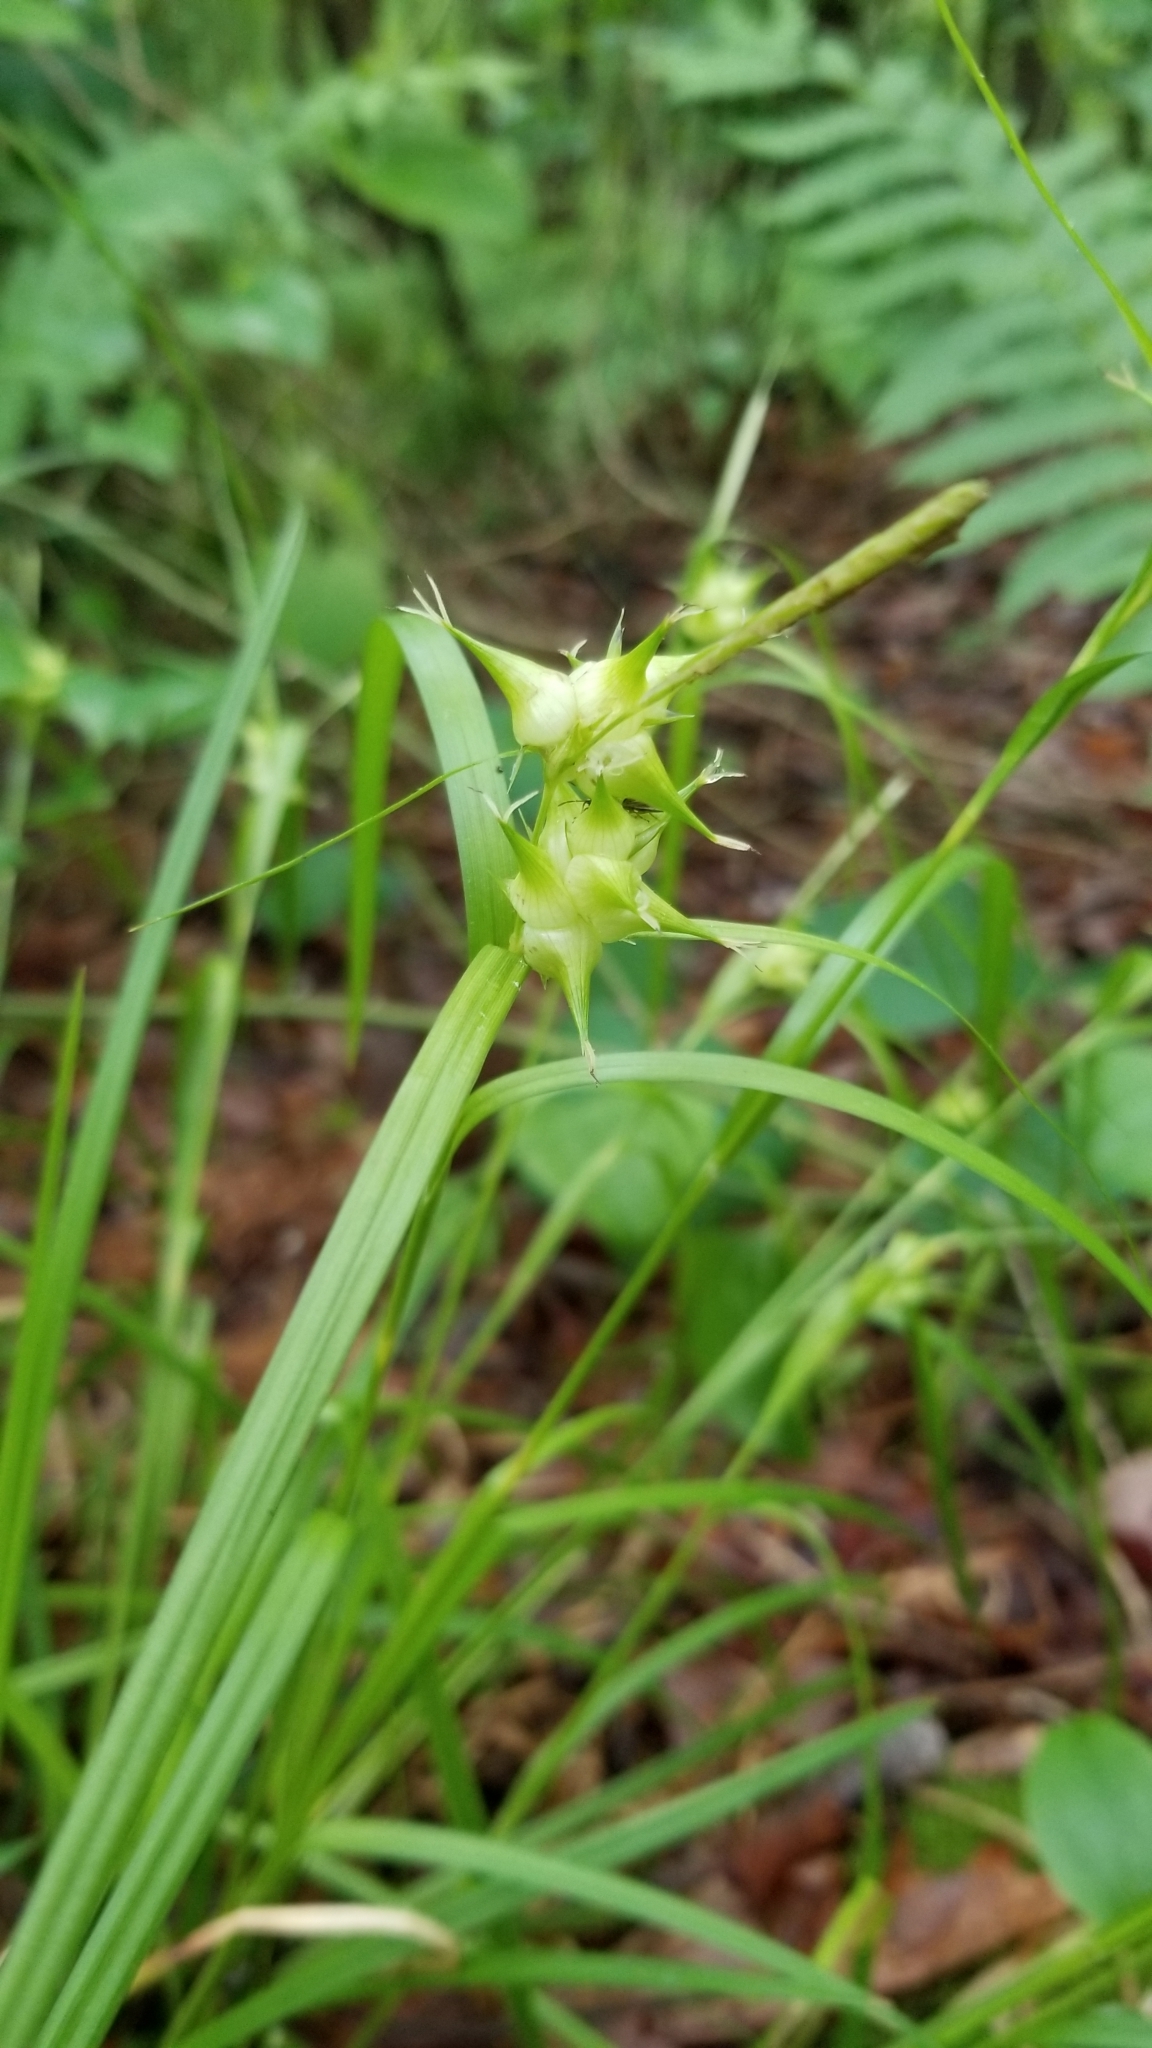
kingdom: Plantae
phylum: Tracheophyta
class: Liliopsida
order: Poales
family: Cyperaceae
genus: Carex
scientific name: Carex intumescens
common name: Greater bladder sedge
